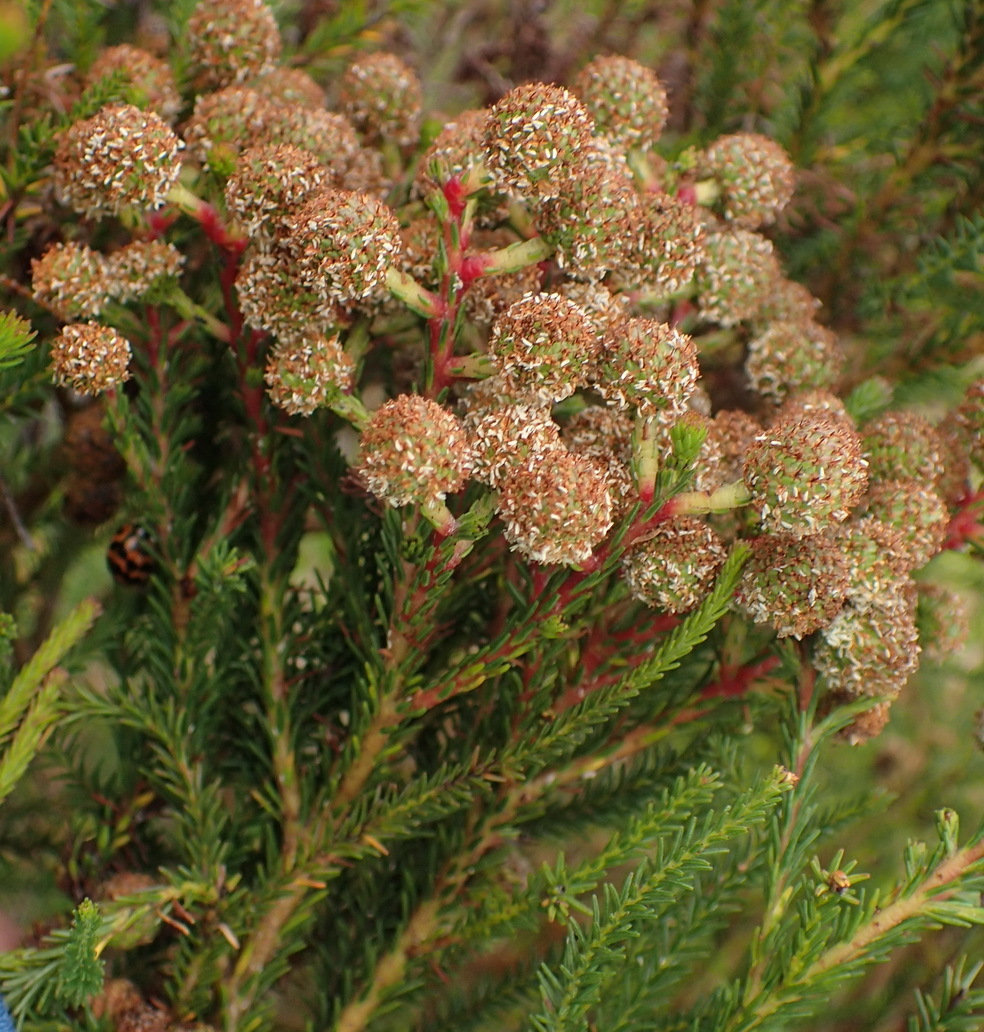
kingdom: Plantae
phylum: Tracheophyta
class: Magnoliopsida
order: Bruniales
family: Bruniaceae
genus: Berzelia
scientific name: Berzelia intermedia
